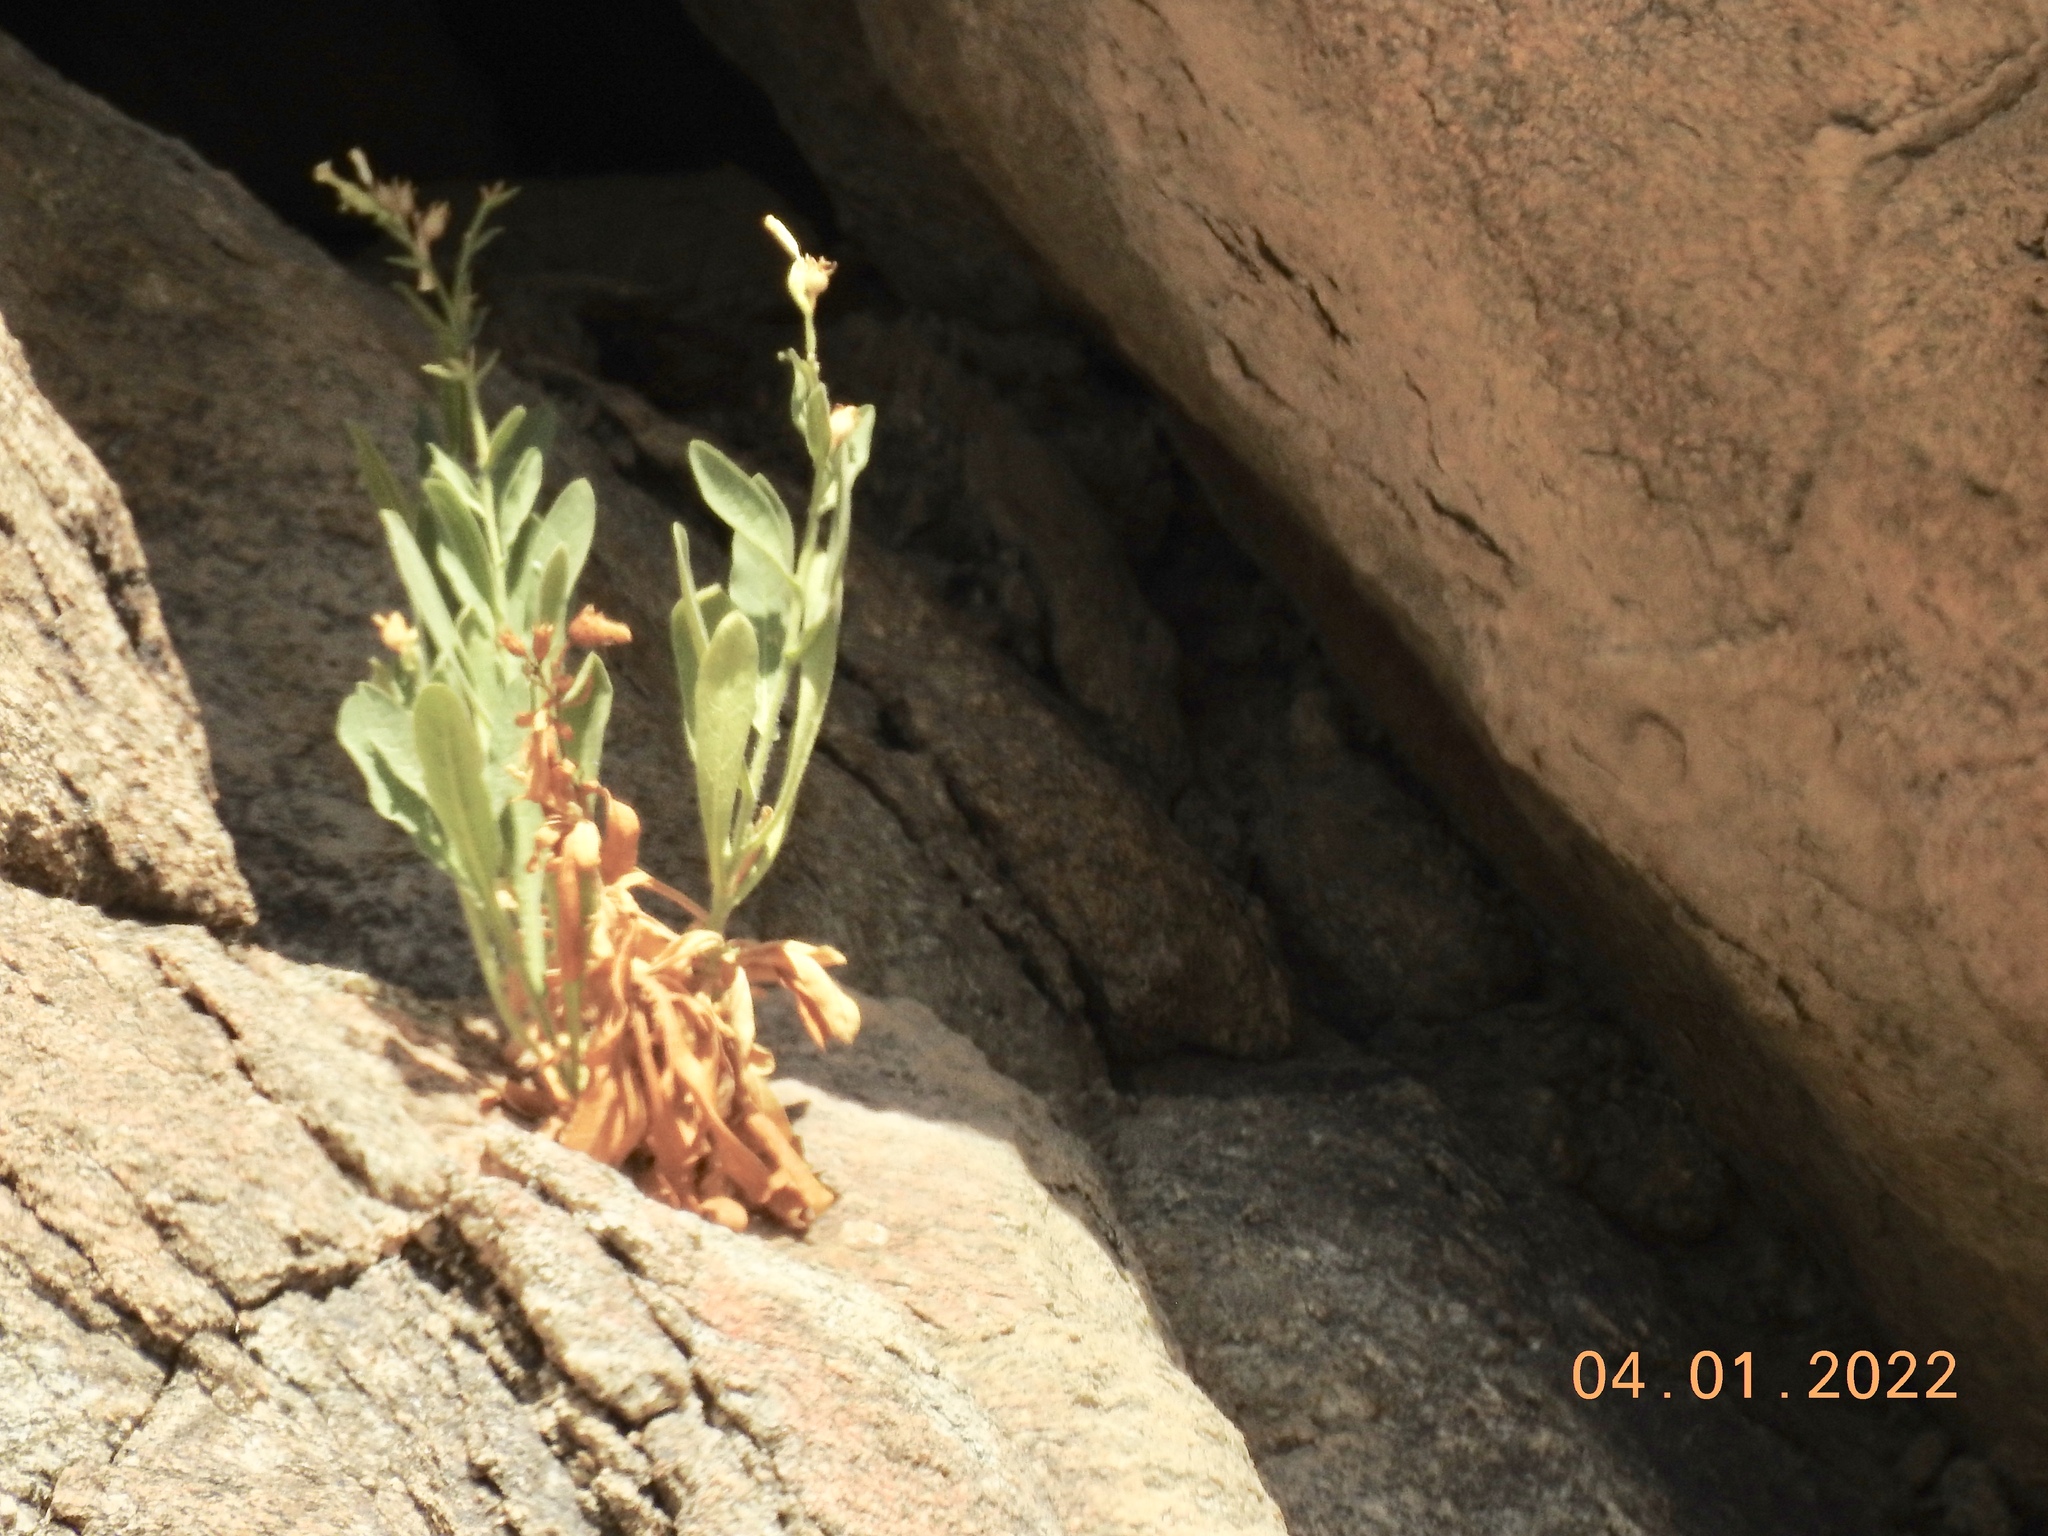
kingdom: Plantae
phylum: Tracheophyta
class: Magnoliopsida
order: Solanales
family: Solanaceae
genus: Nicotiana
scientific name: Nicotiana obtusifolia
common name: Desert tobacco
